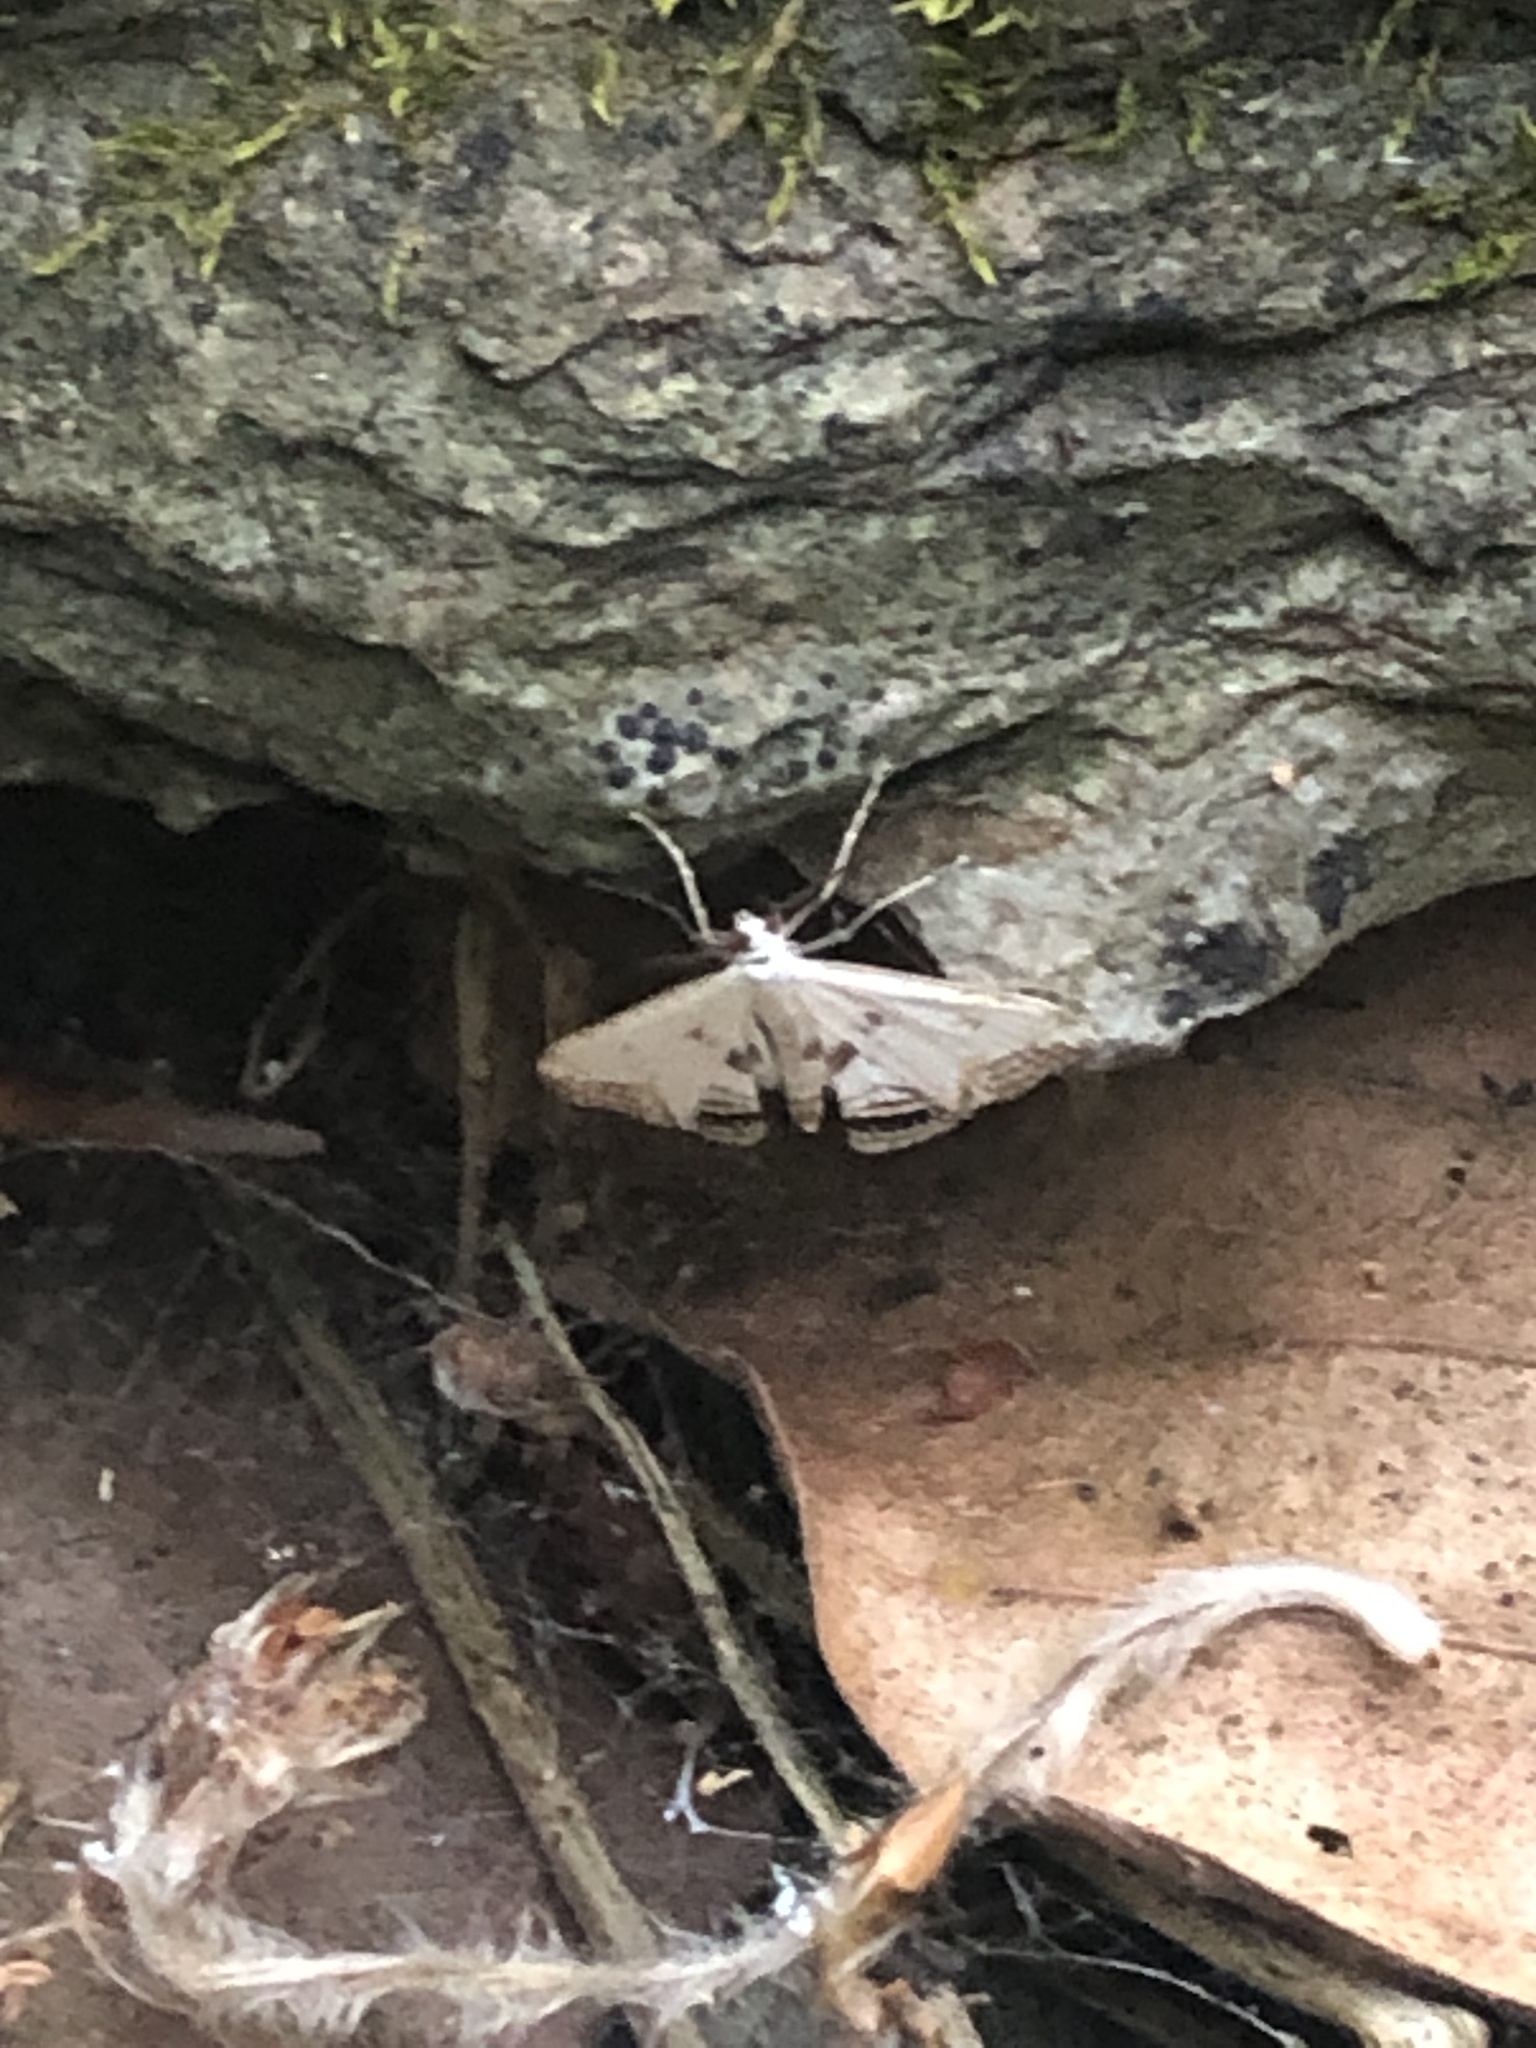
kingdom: Animalia
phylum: Arthropoda
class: Insecta
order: Lepidoptera
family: Crambidae
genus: Cataclysta
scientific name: Cataclysta lemnata
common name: Small china-mark
